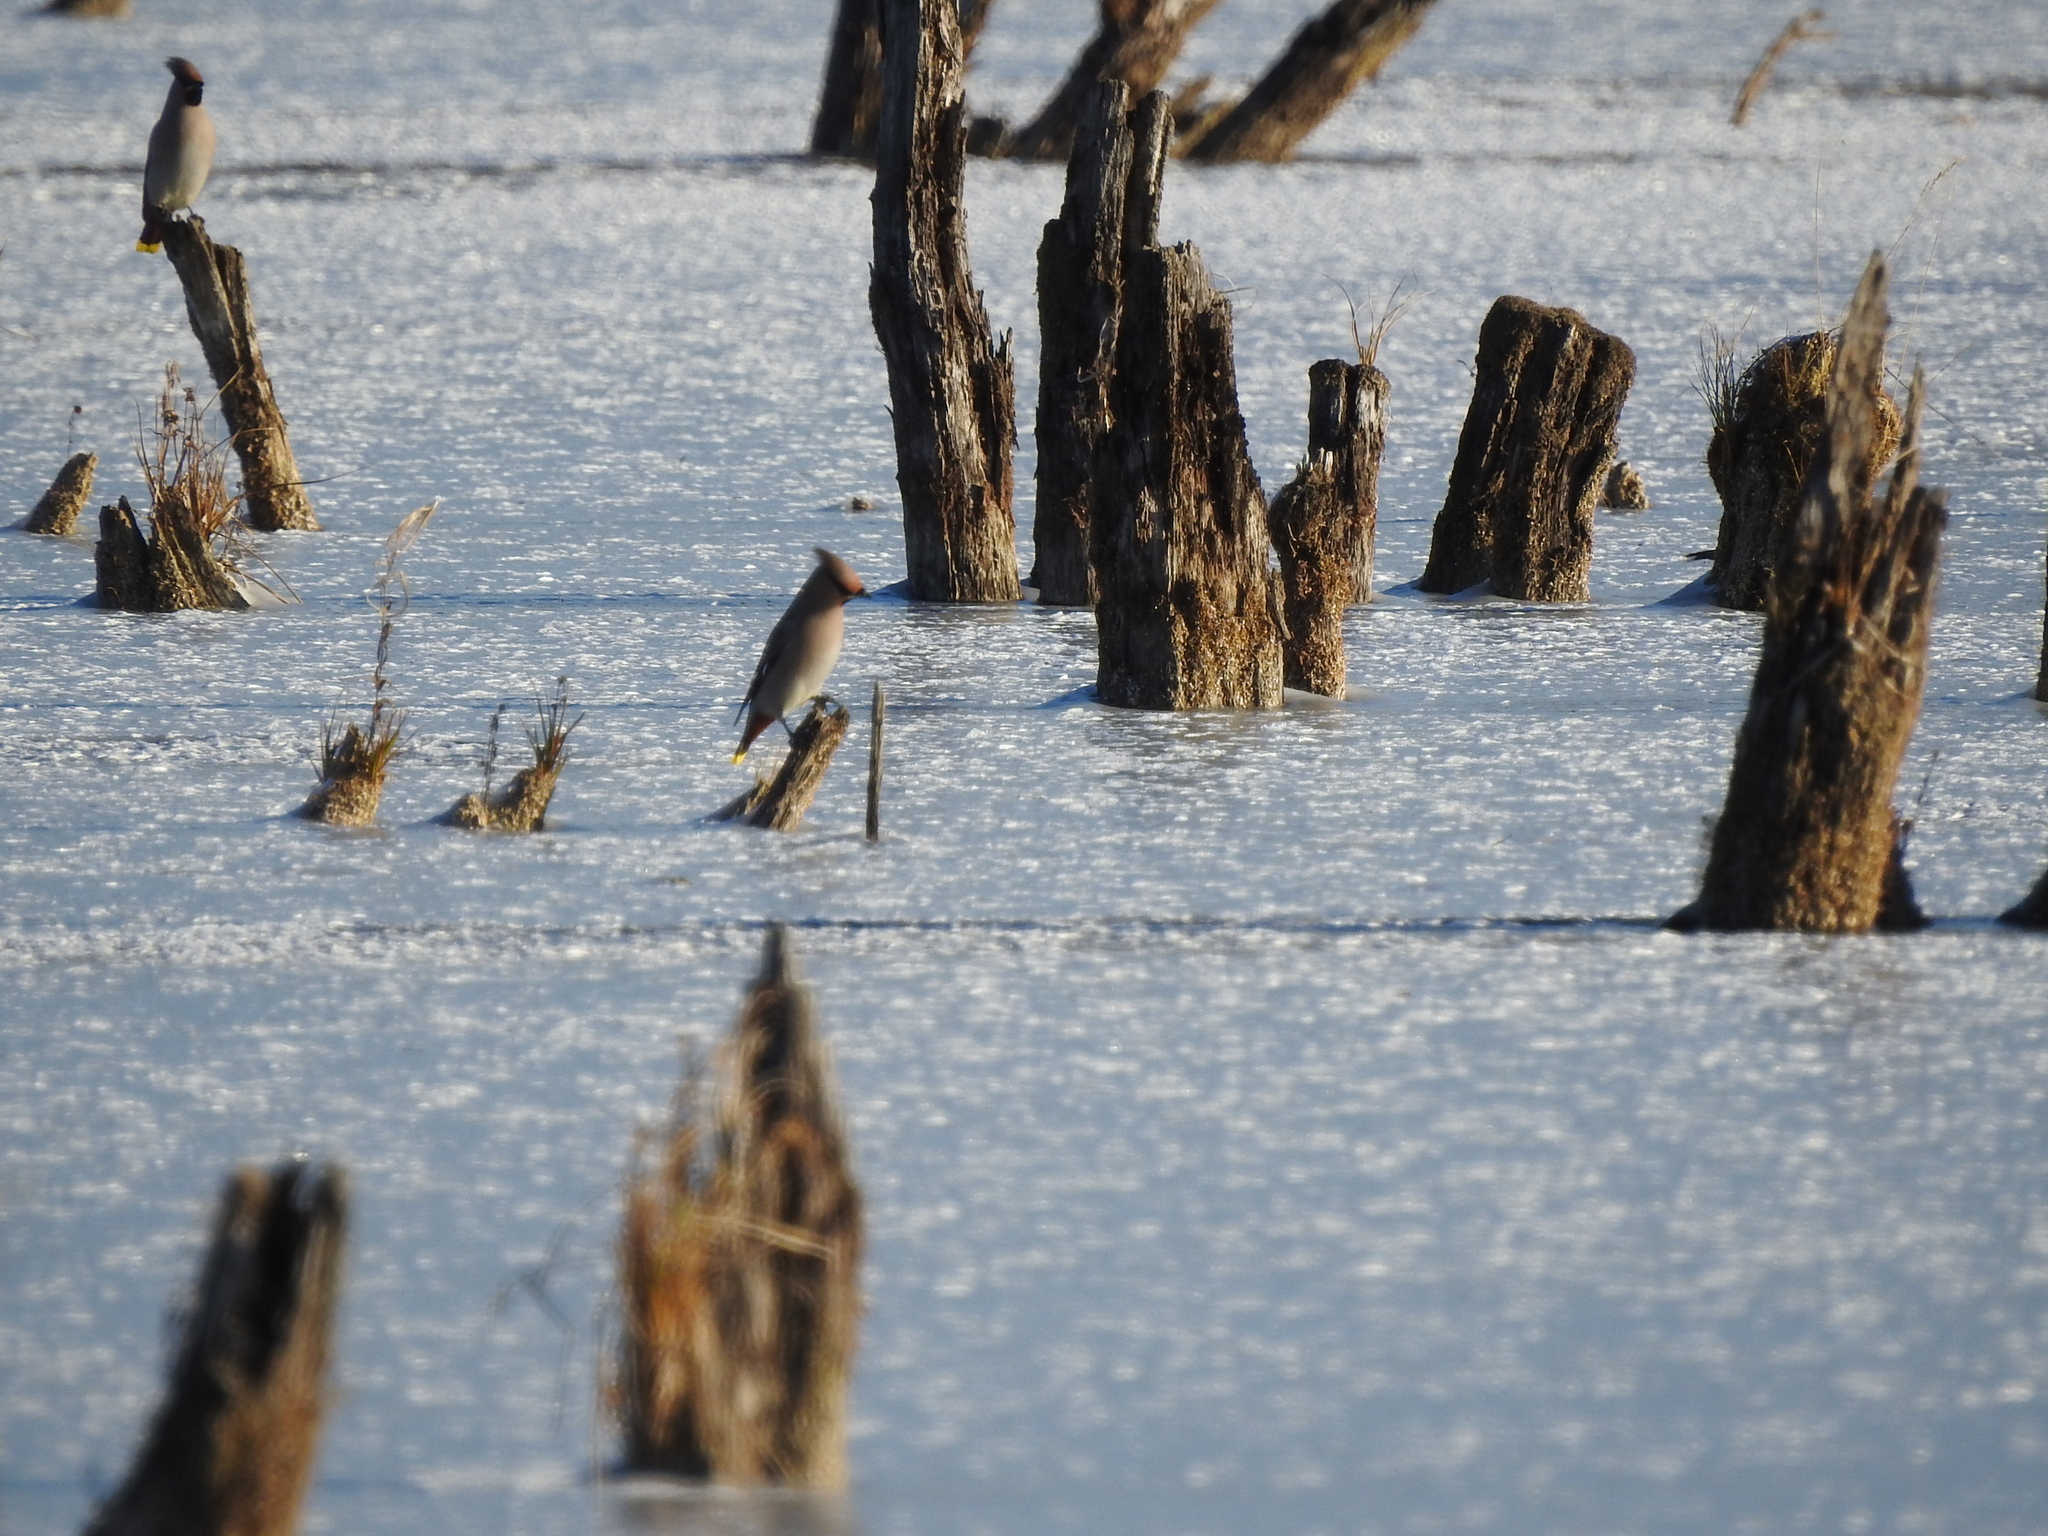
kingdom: Animalia
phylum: Chordata
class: Aves
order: Passeriformes
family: Bombycillidae
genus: Bombycilla
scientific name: Bombycilla garrulus
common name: Bohemian waxwing
